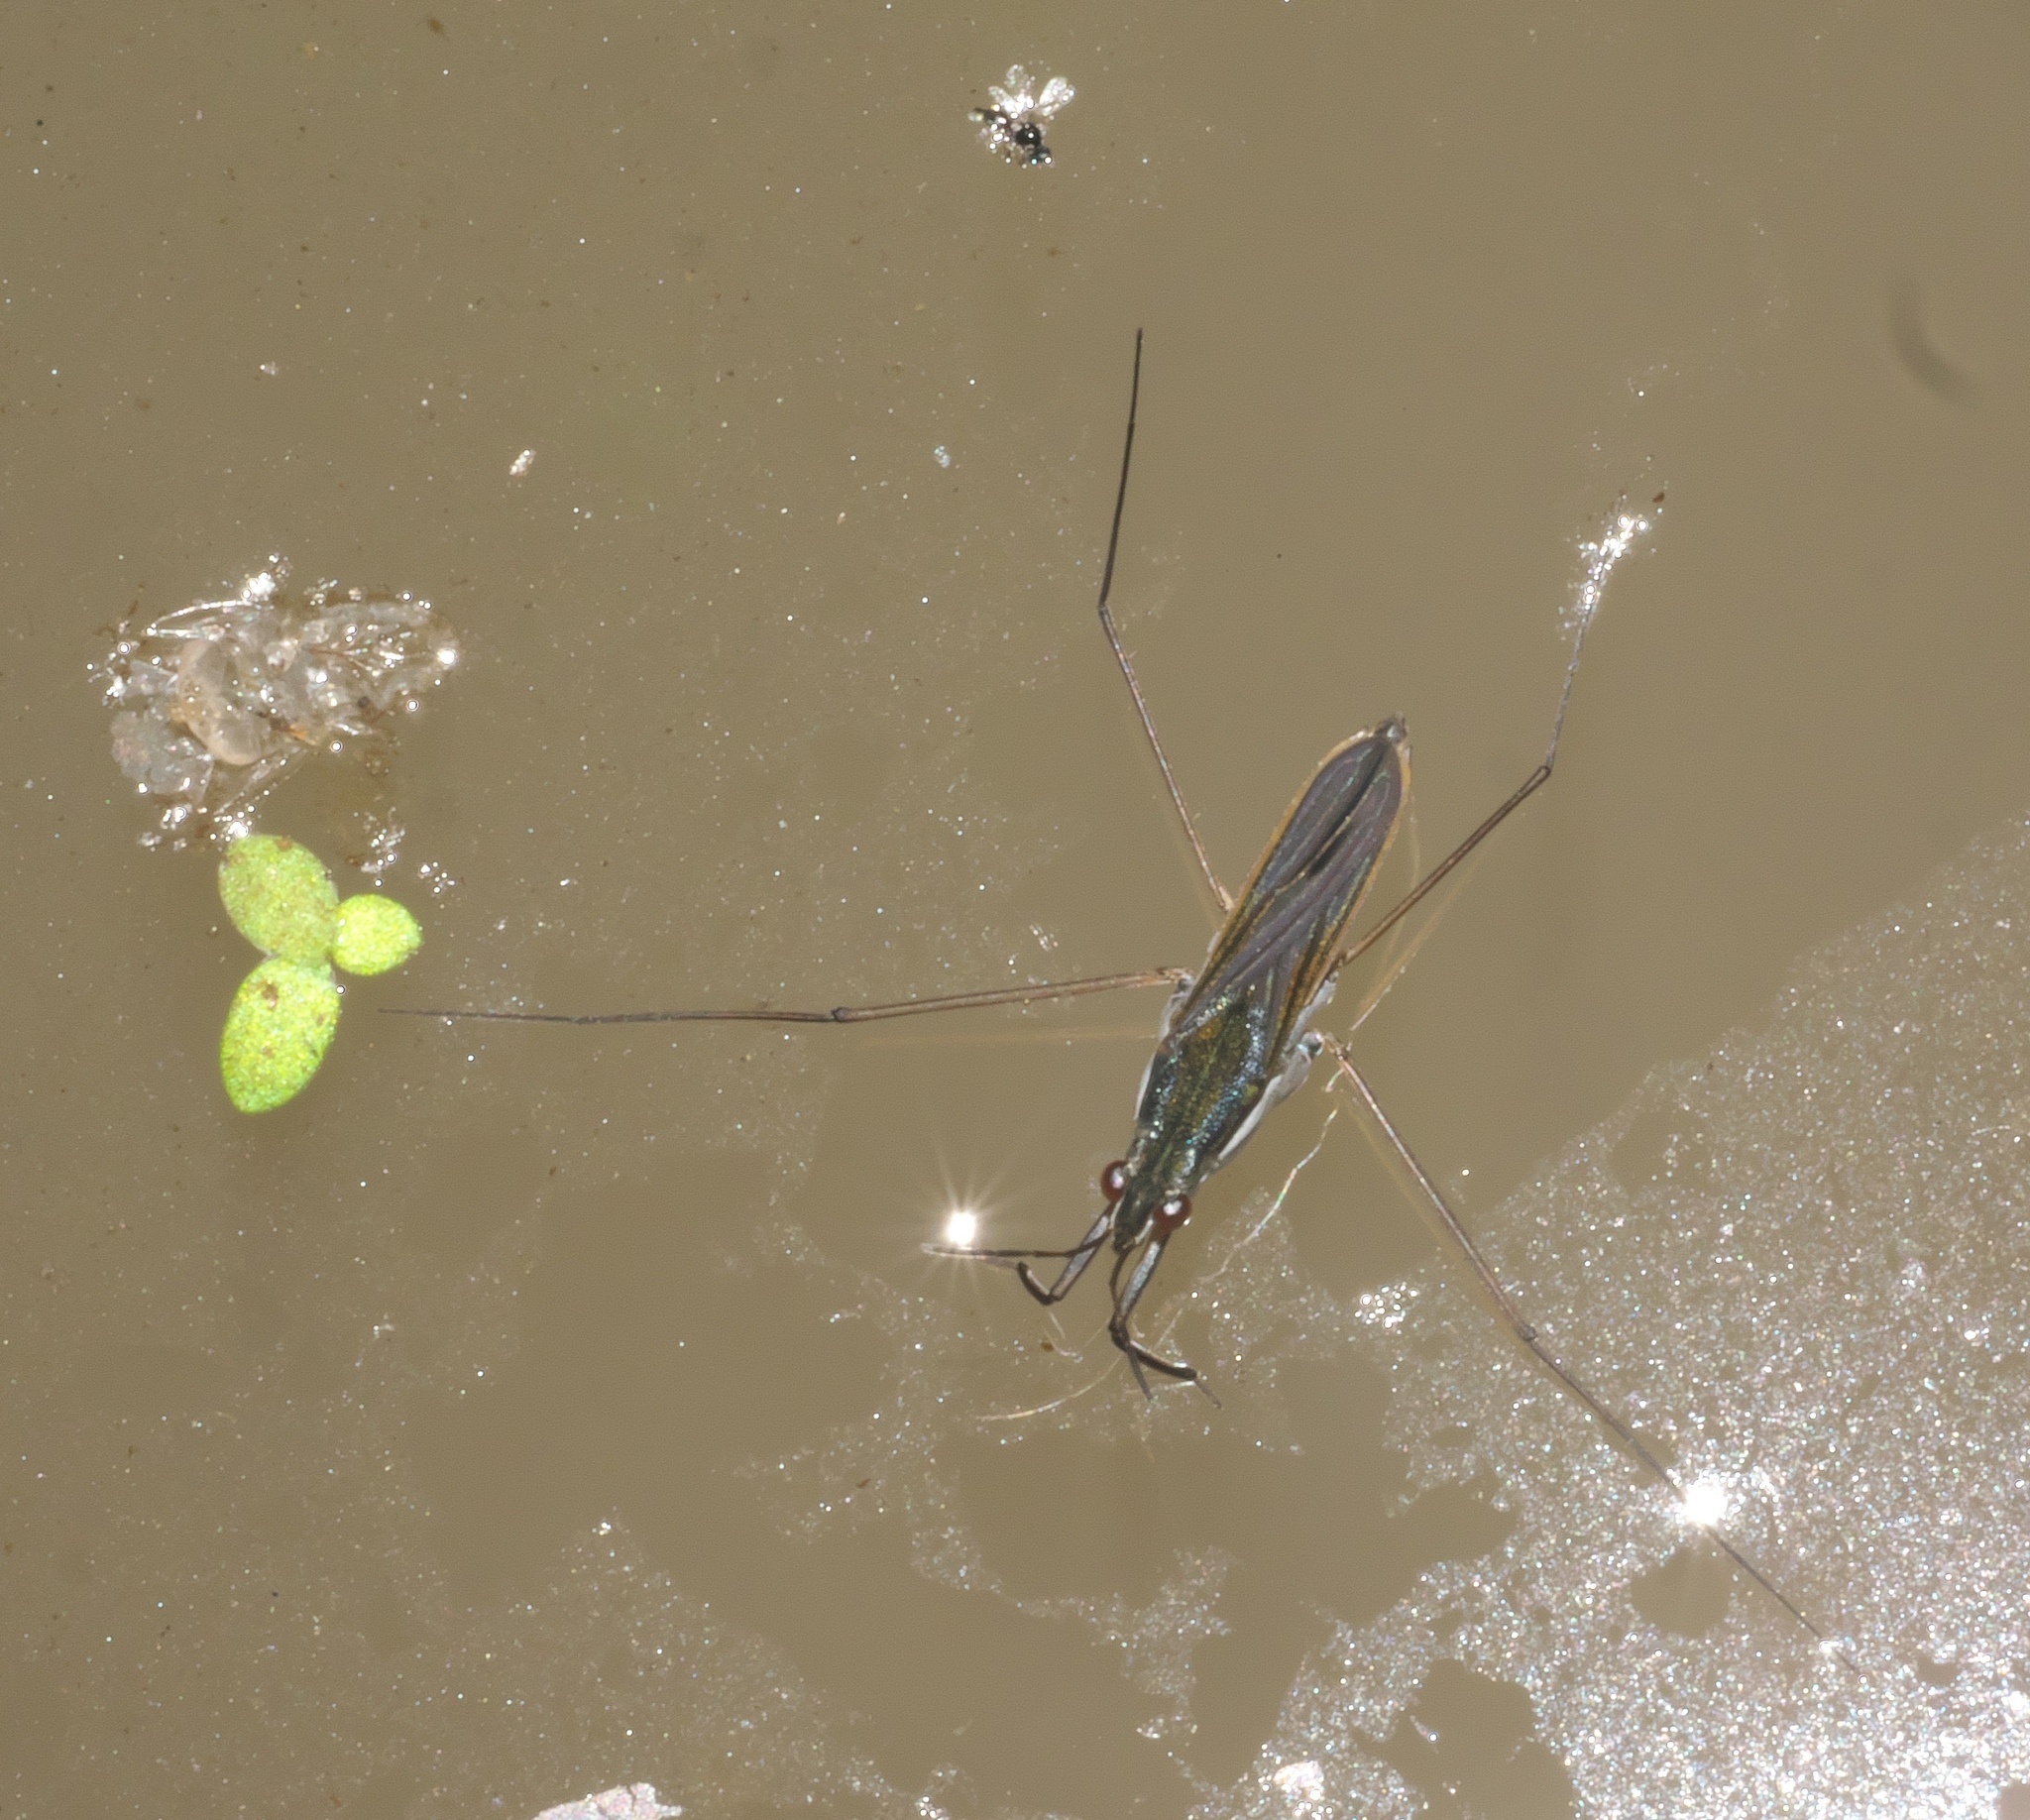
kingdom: Animalia
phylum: Arthropoda
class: Insecta
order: Hemiptera
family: Gerridae
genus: Gerris
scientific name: Gerris
